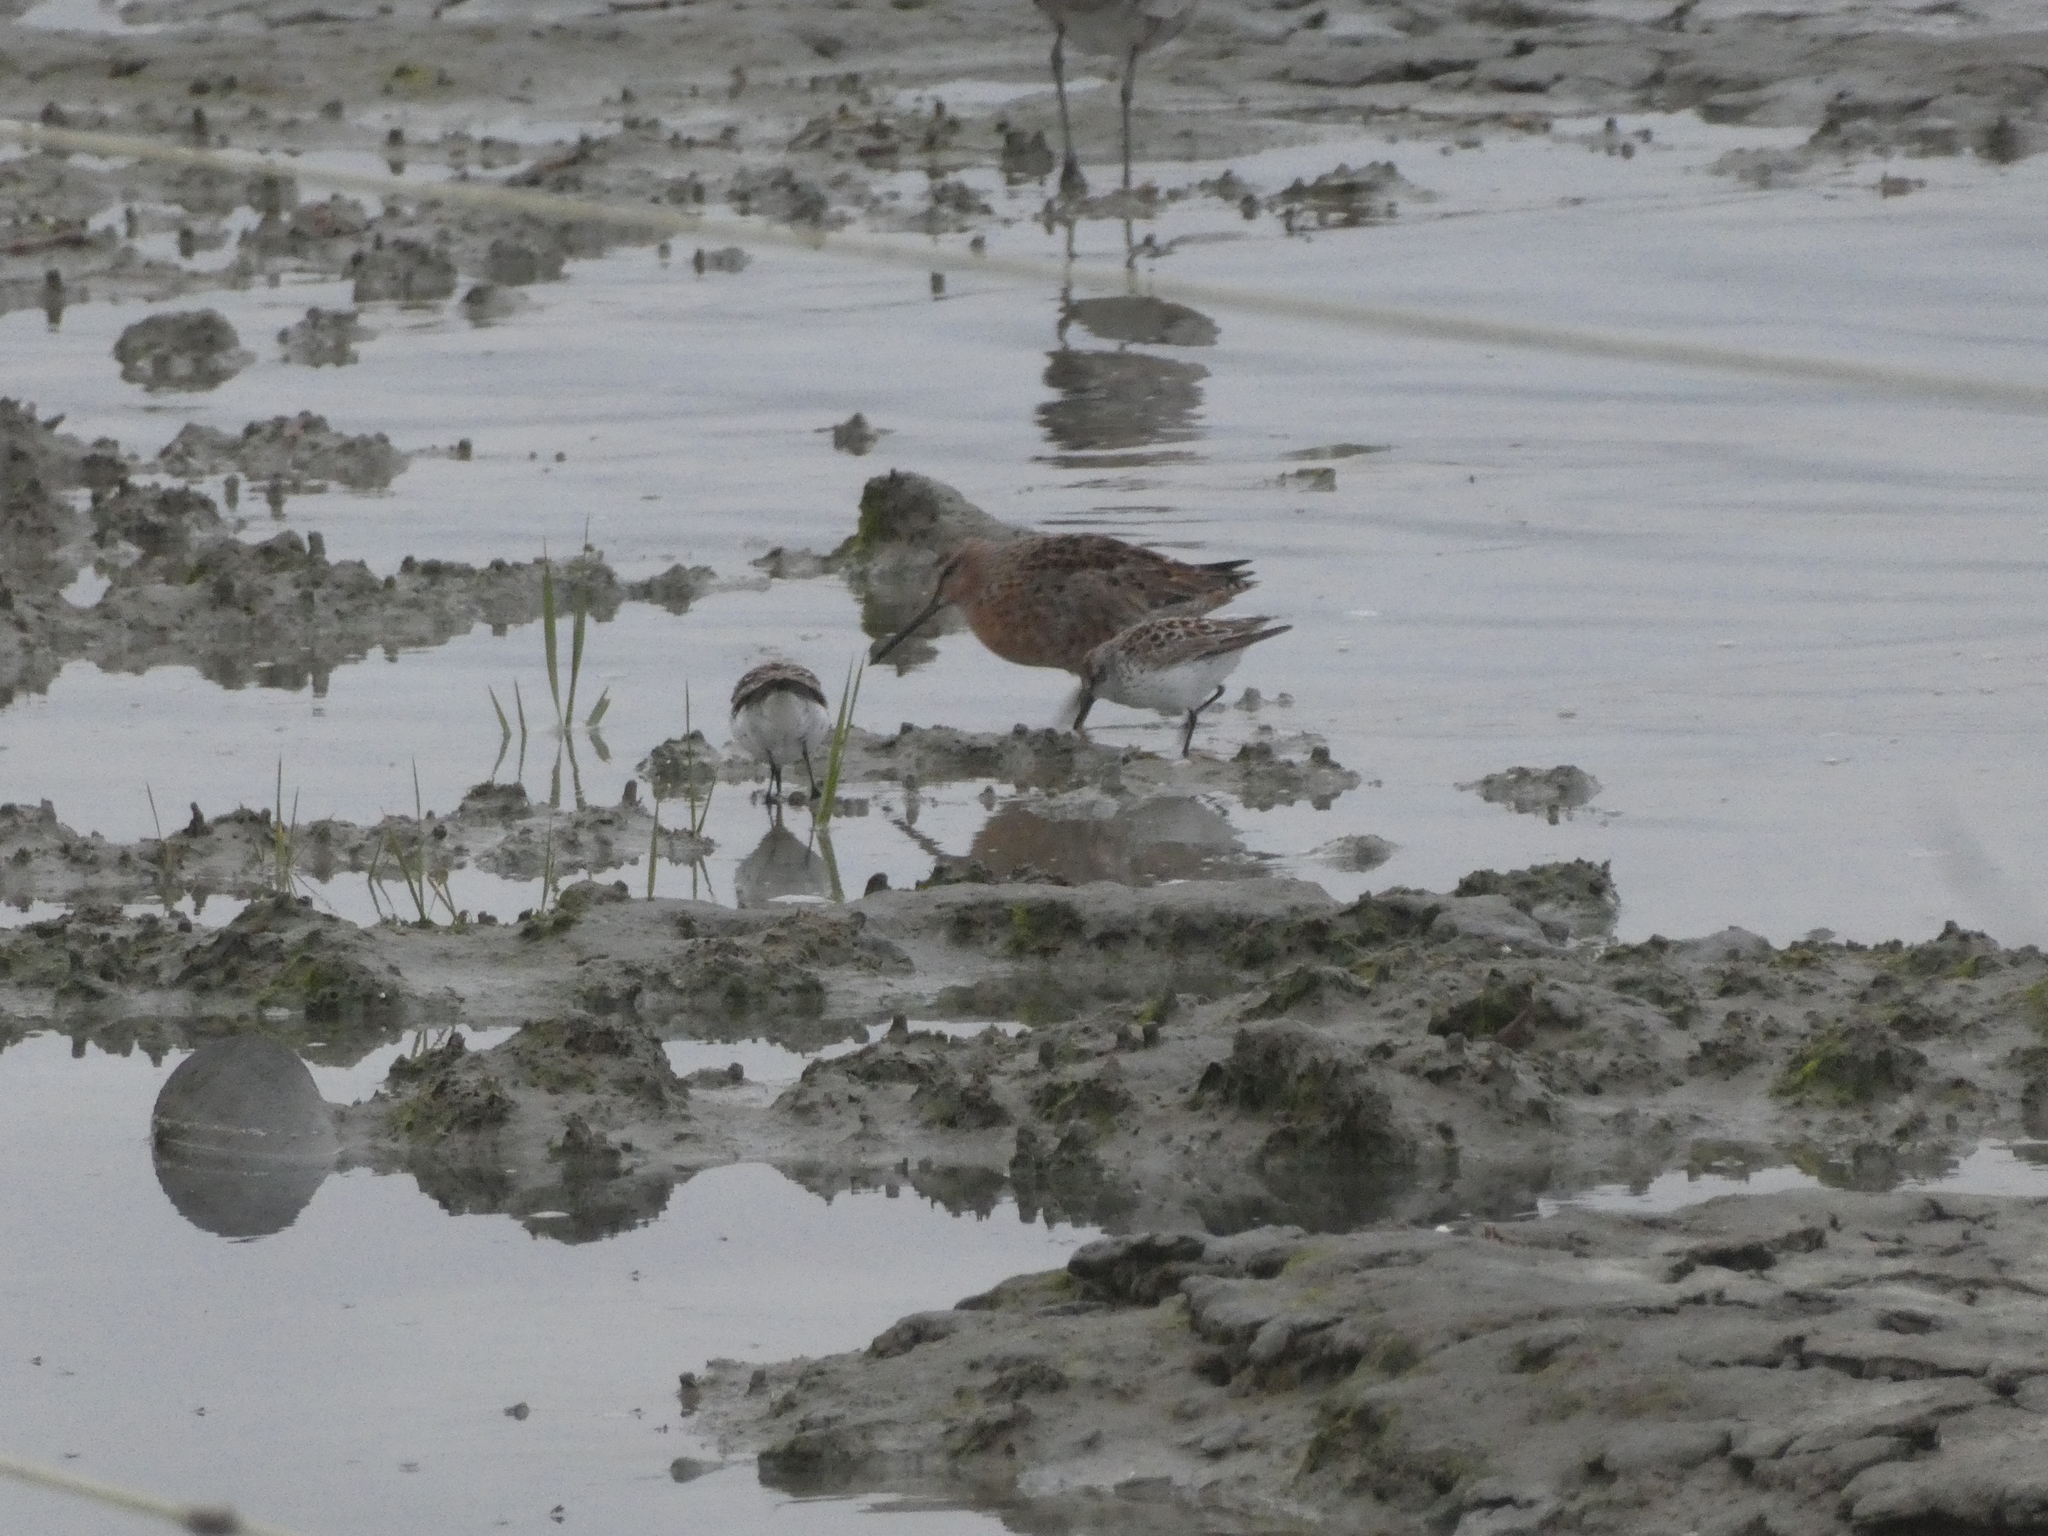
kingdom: Animalia
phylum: Chordata
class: Aves
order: Charadriiformes
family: Scolopacidae
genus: Limnodromus
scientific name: Limnodromus griseus
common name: Short-billed dowitcher
